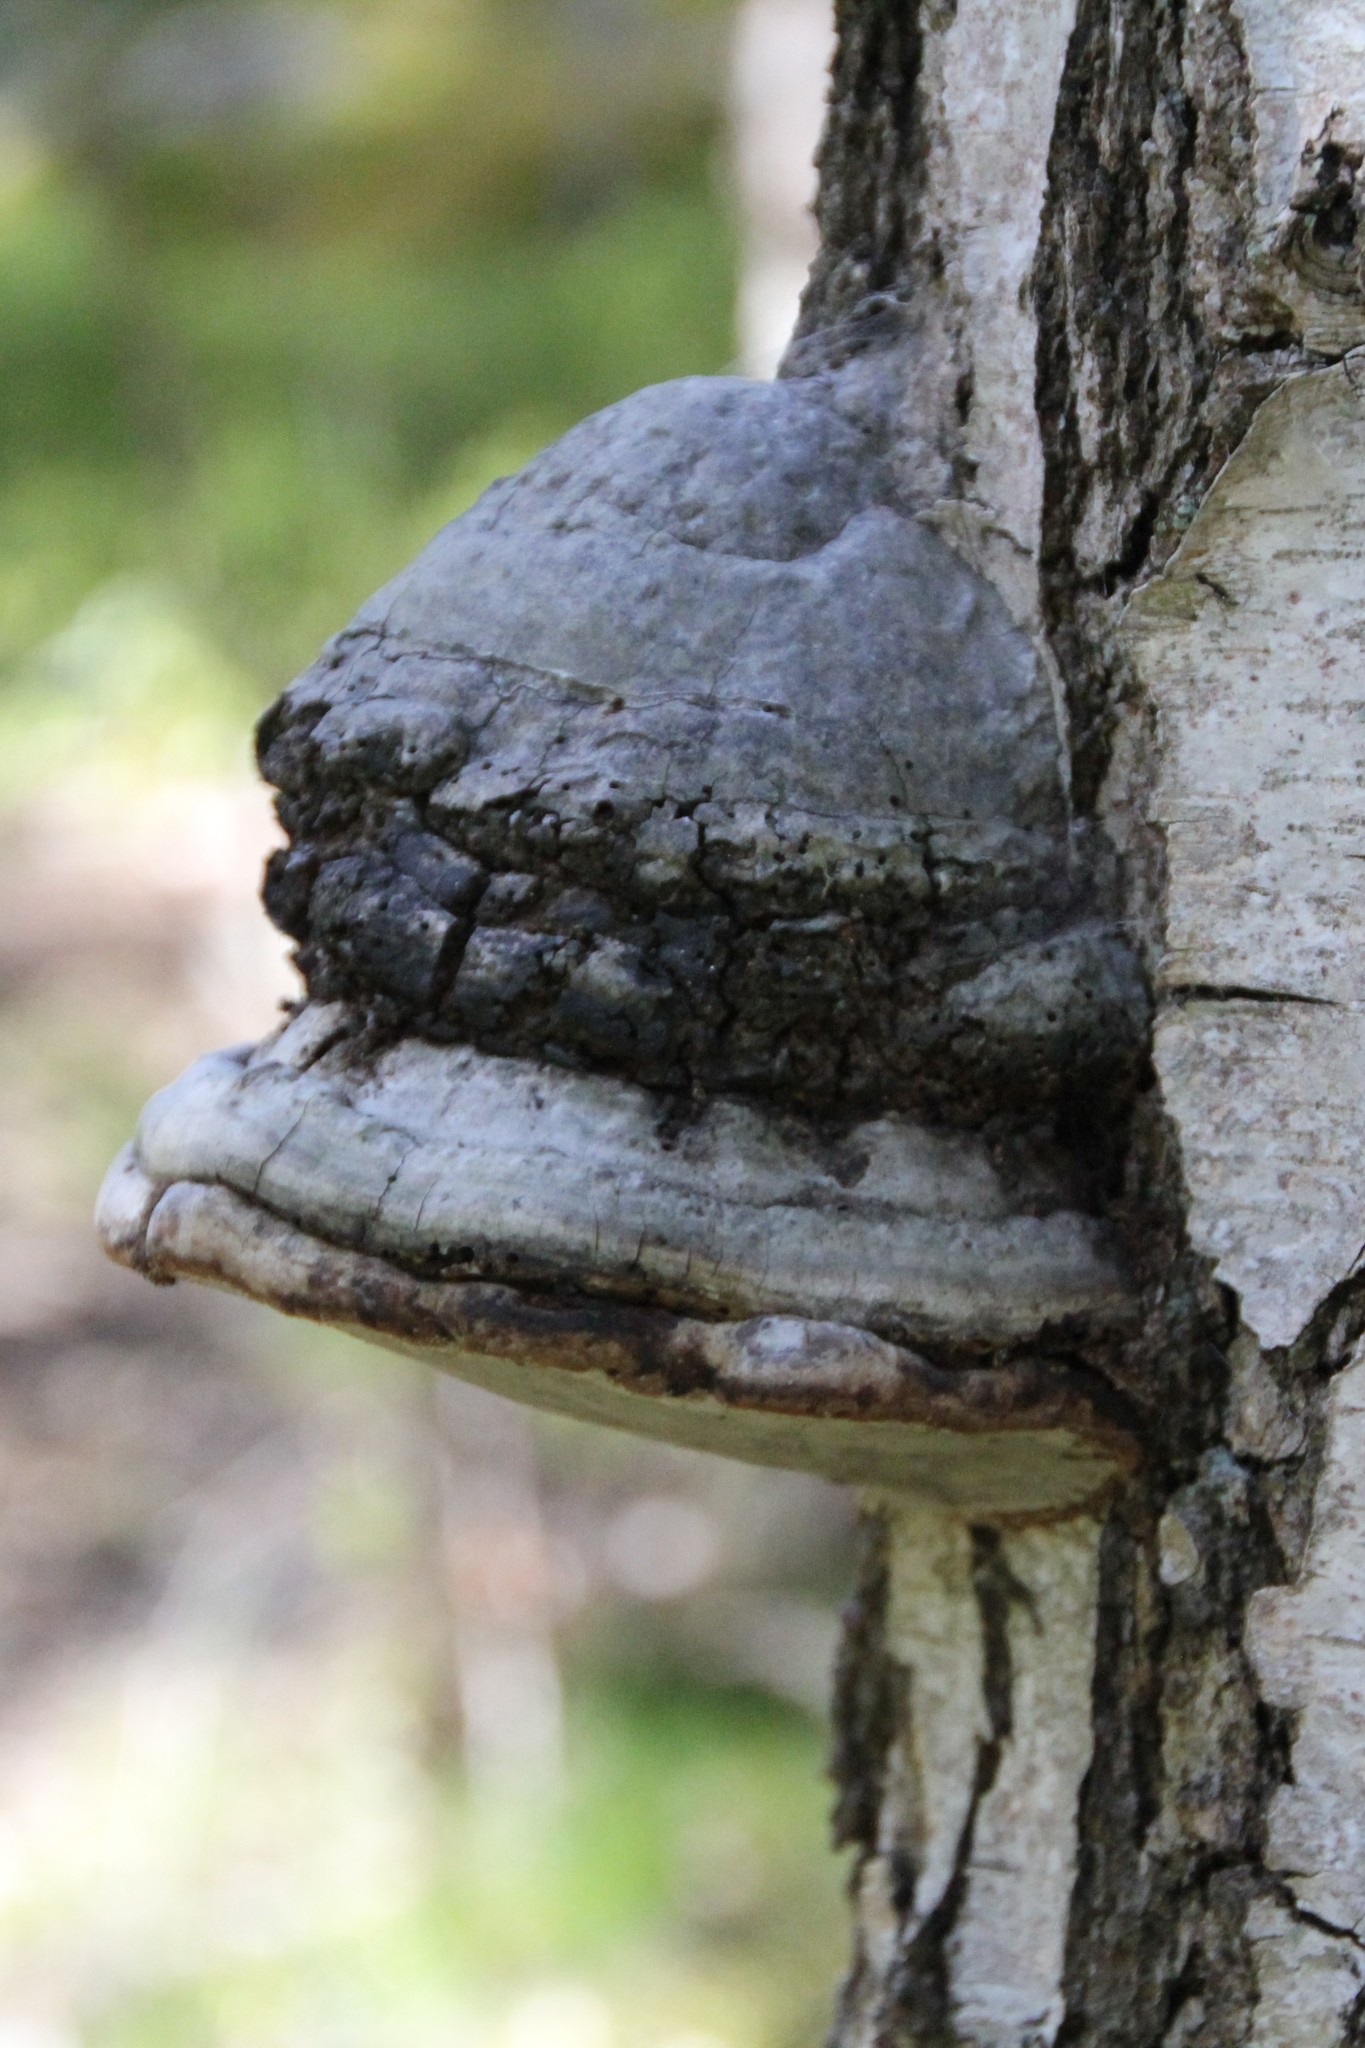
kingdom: Fungi
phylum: Basidiomycota
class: Agaricomycetes
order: Polyporales
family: Polyporaceae
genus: Fomes
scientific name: Fomes fomentarius
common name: Hoof fungus
